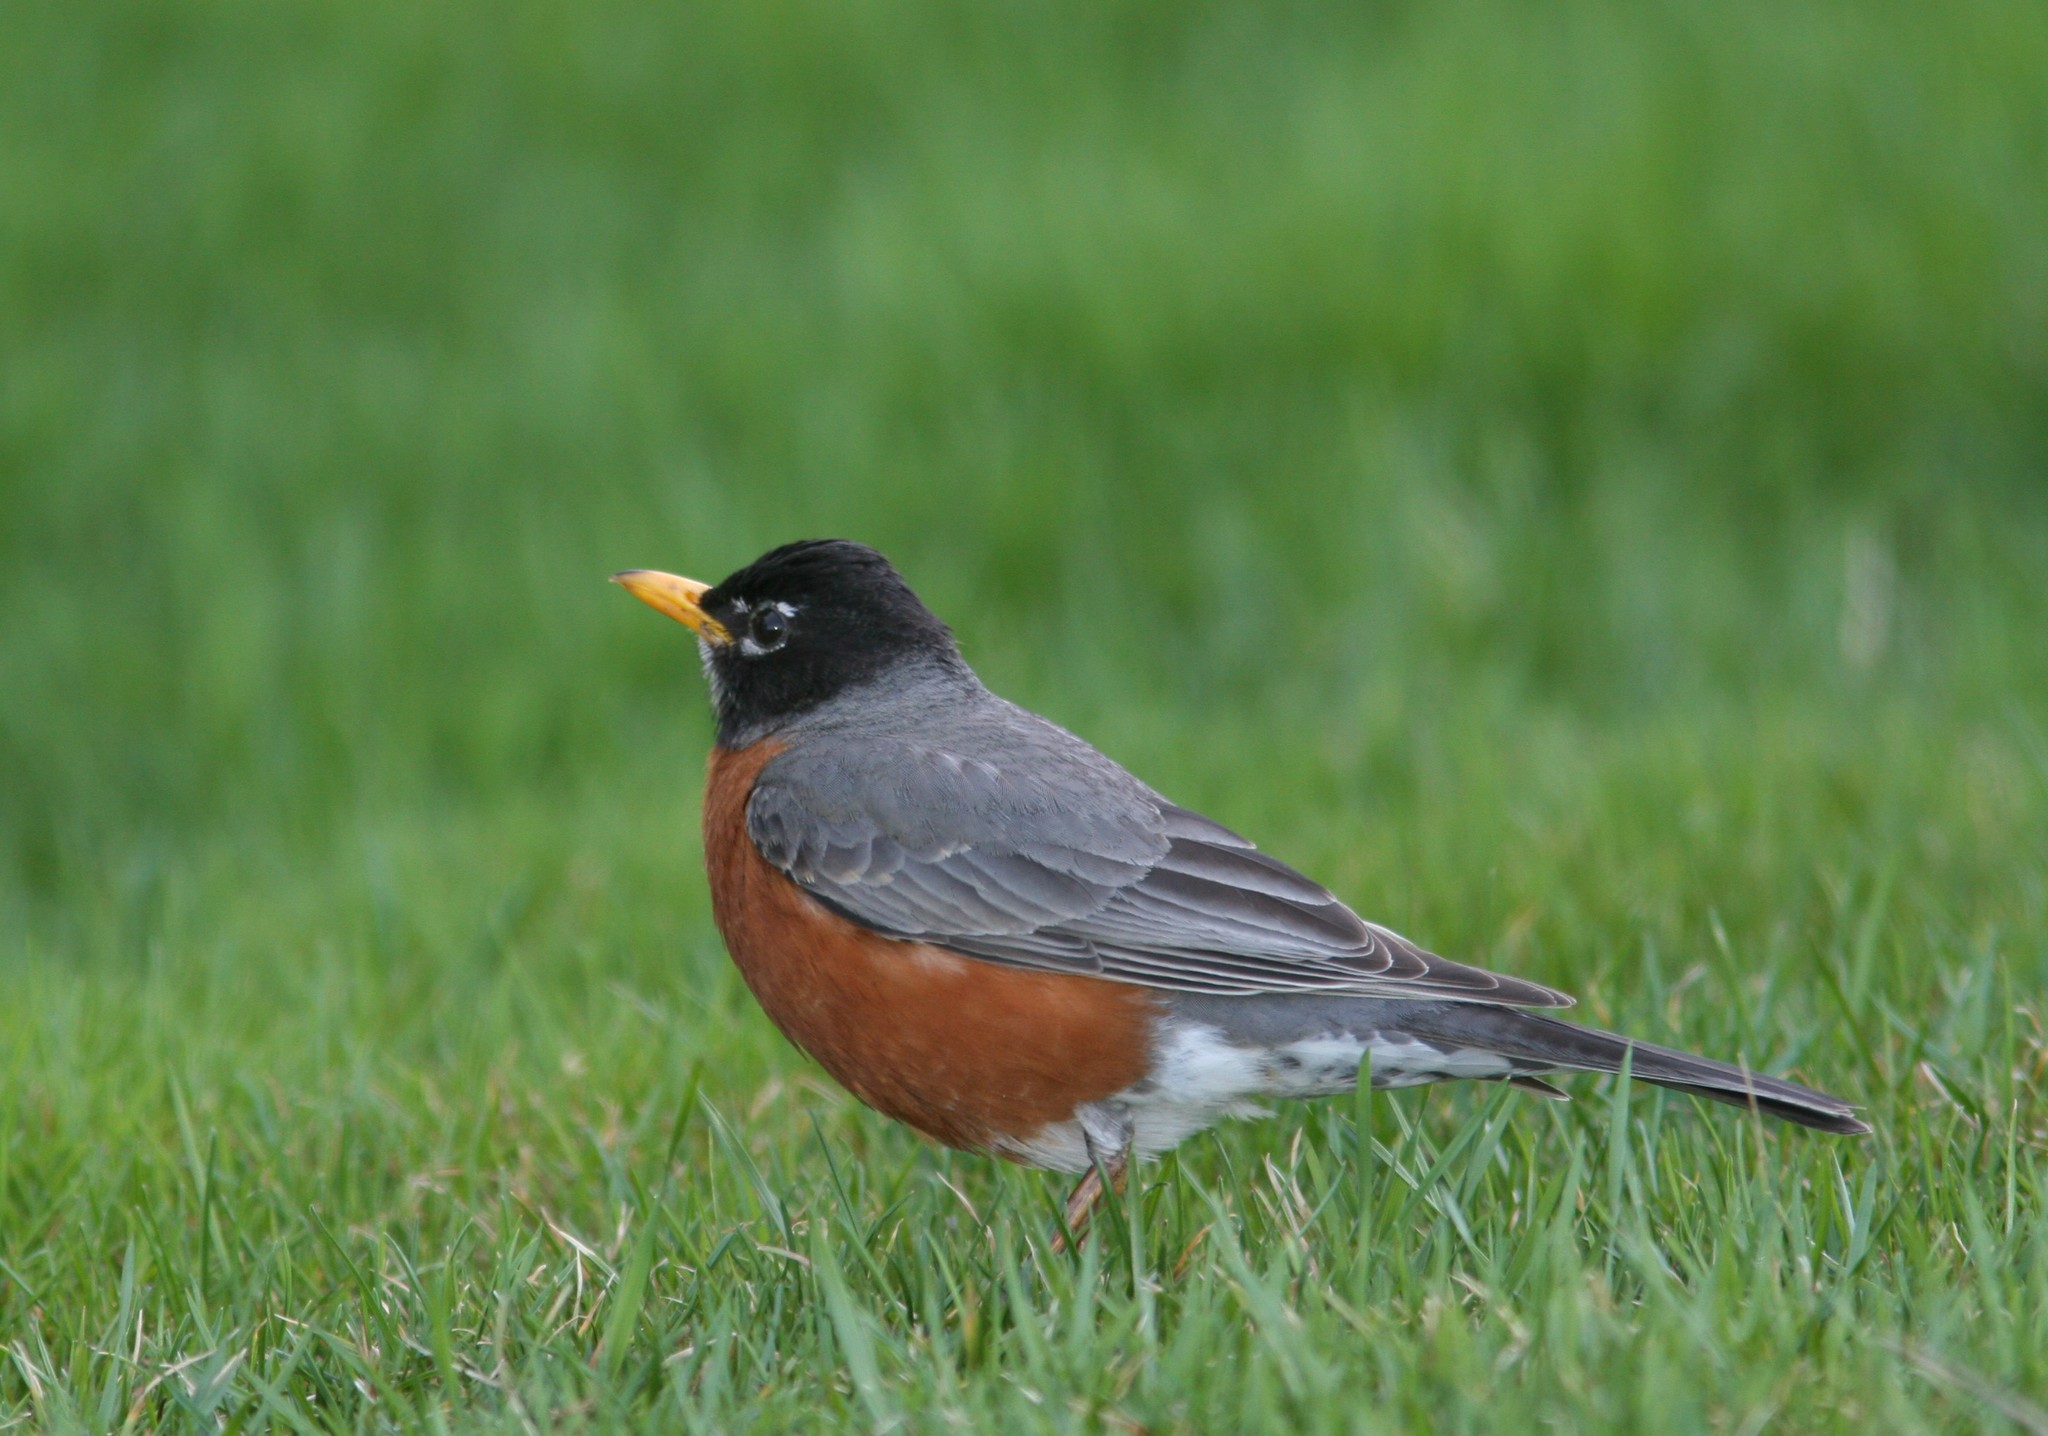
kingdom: Animalia
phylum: Chordata
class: Aves
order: Passeriformes
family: Turdidae
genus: Turdus
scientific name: Turdus migratorius
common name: American robin
